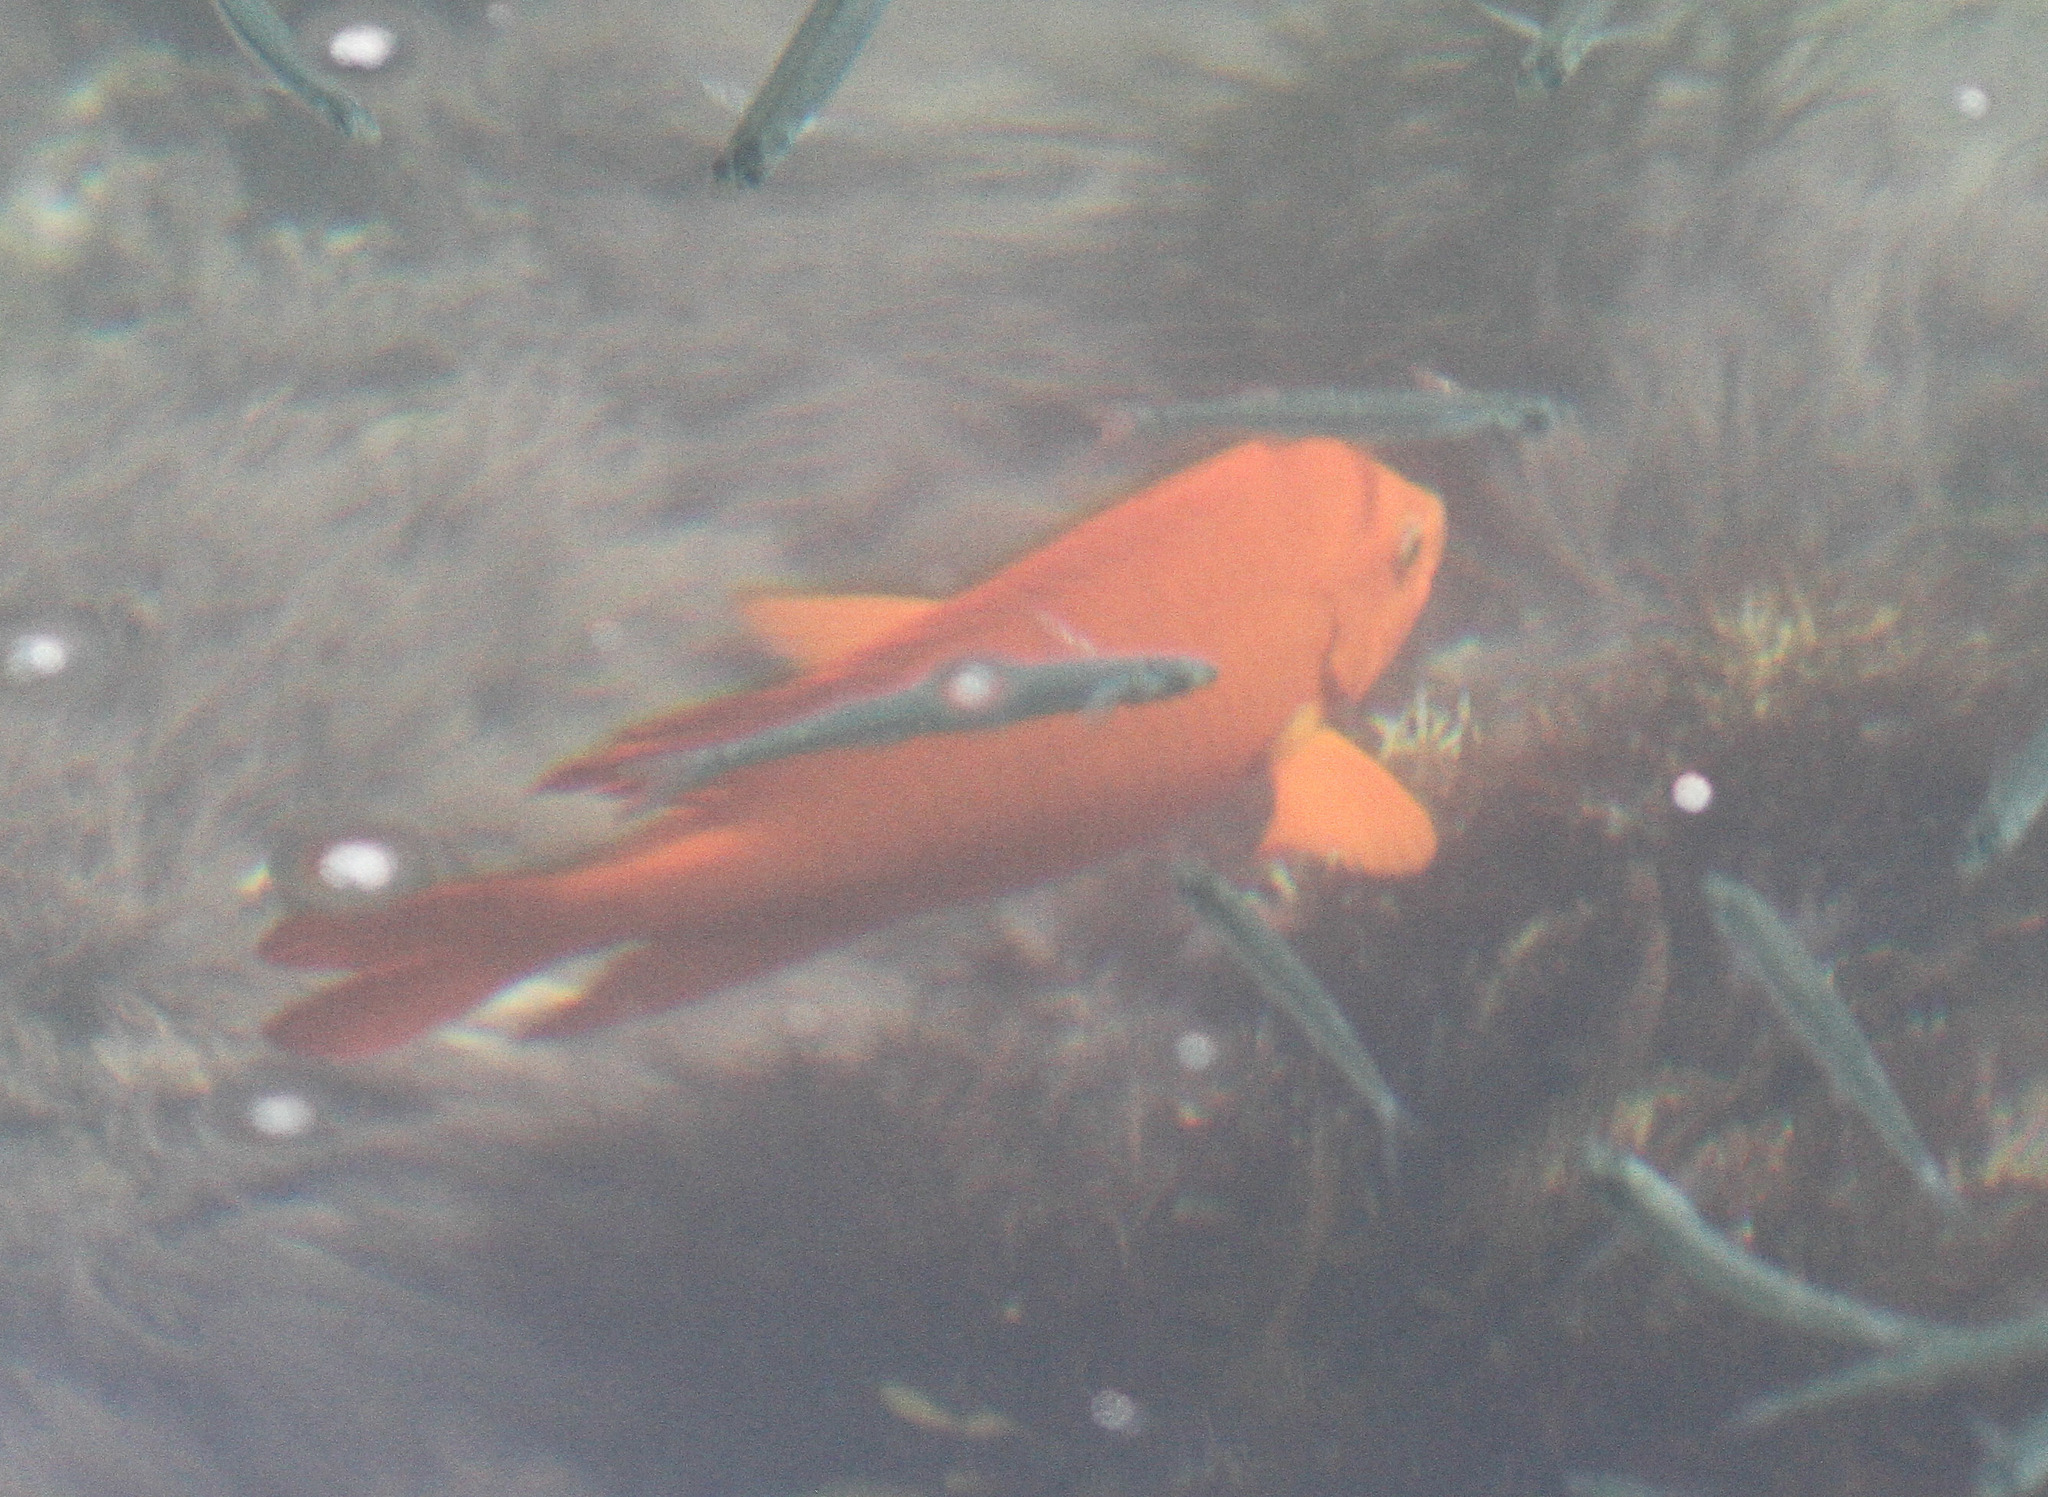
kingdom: Animalia
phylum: Chordata
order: Perciformes
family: Pomacentridae
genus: Hypsypops
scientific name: Hypsypops rubicundus
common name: Garibaldi
